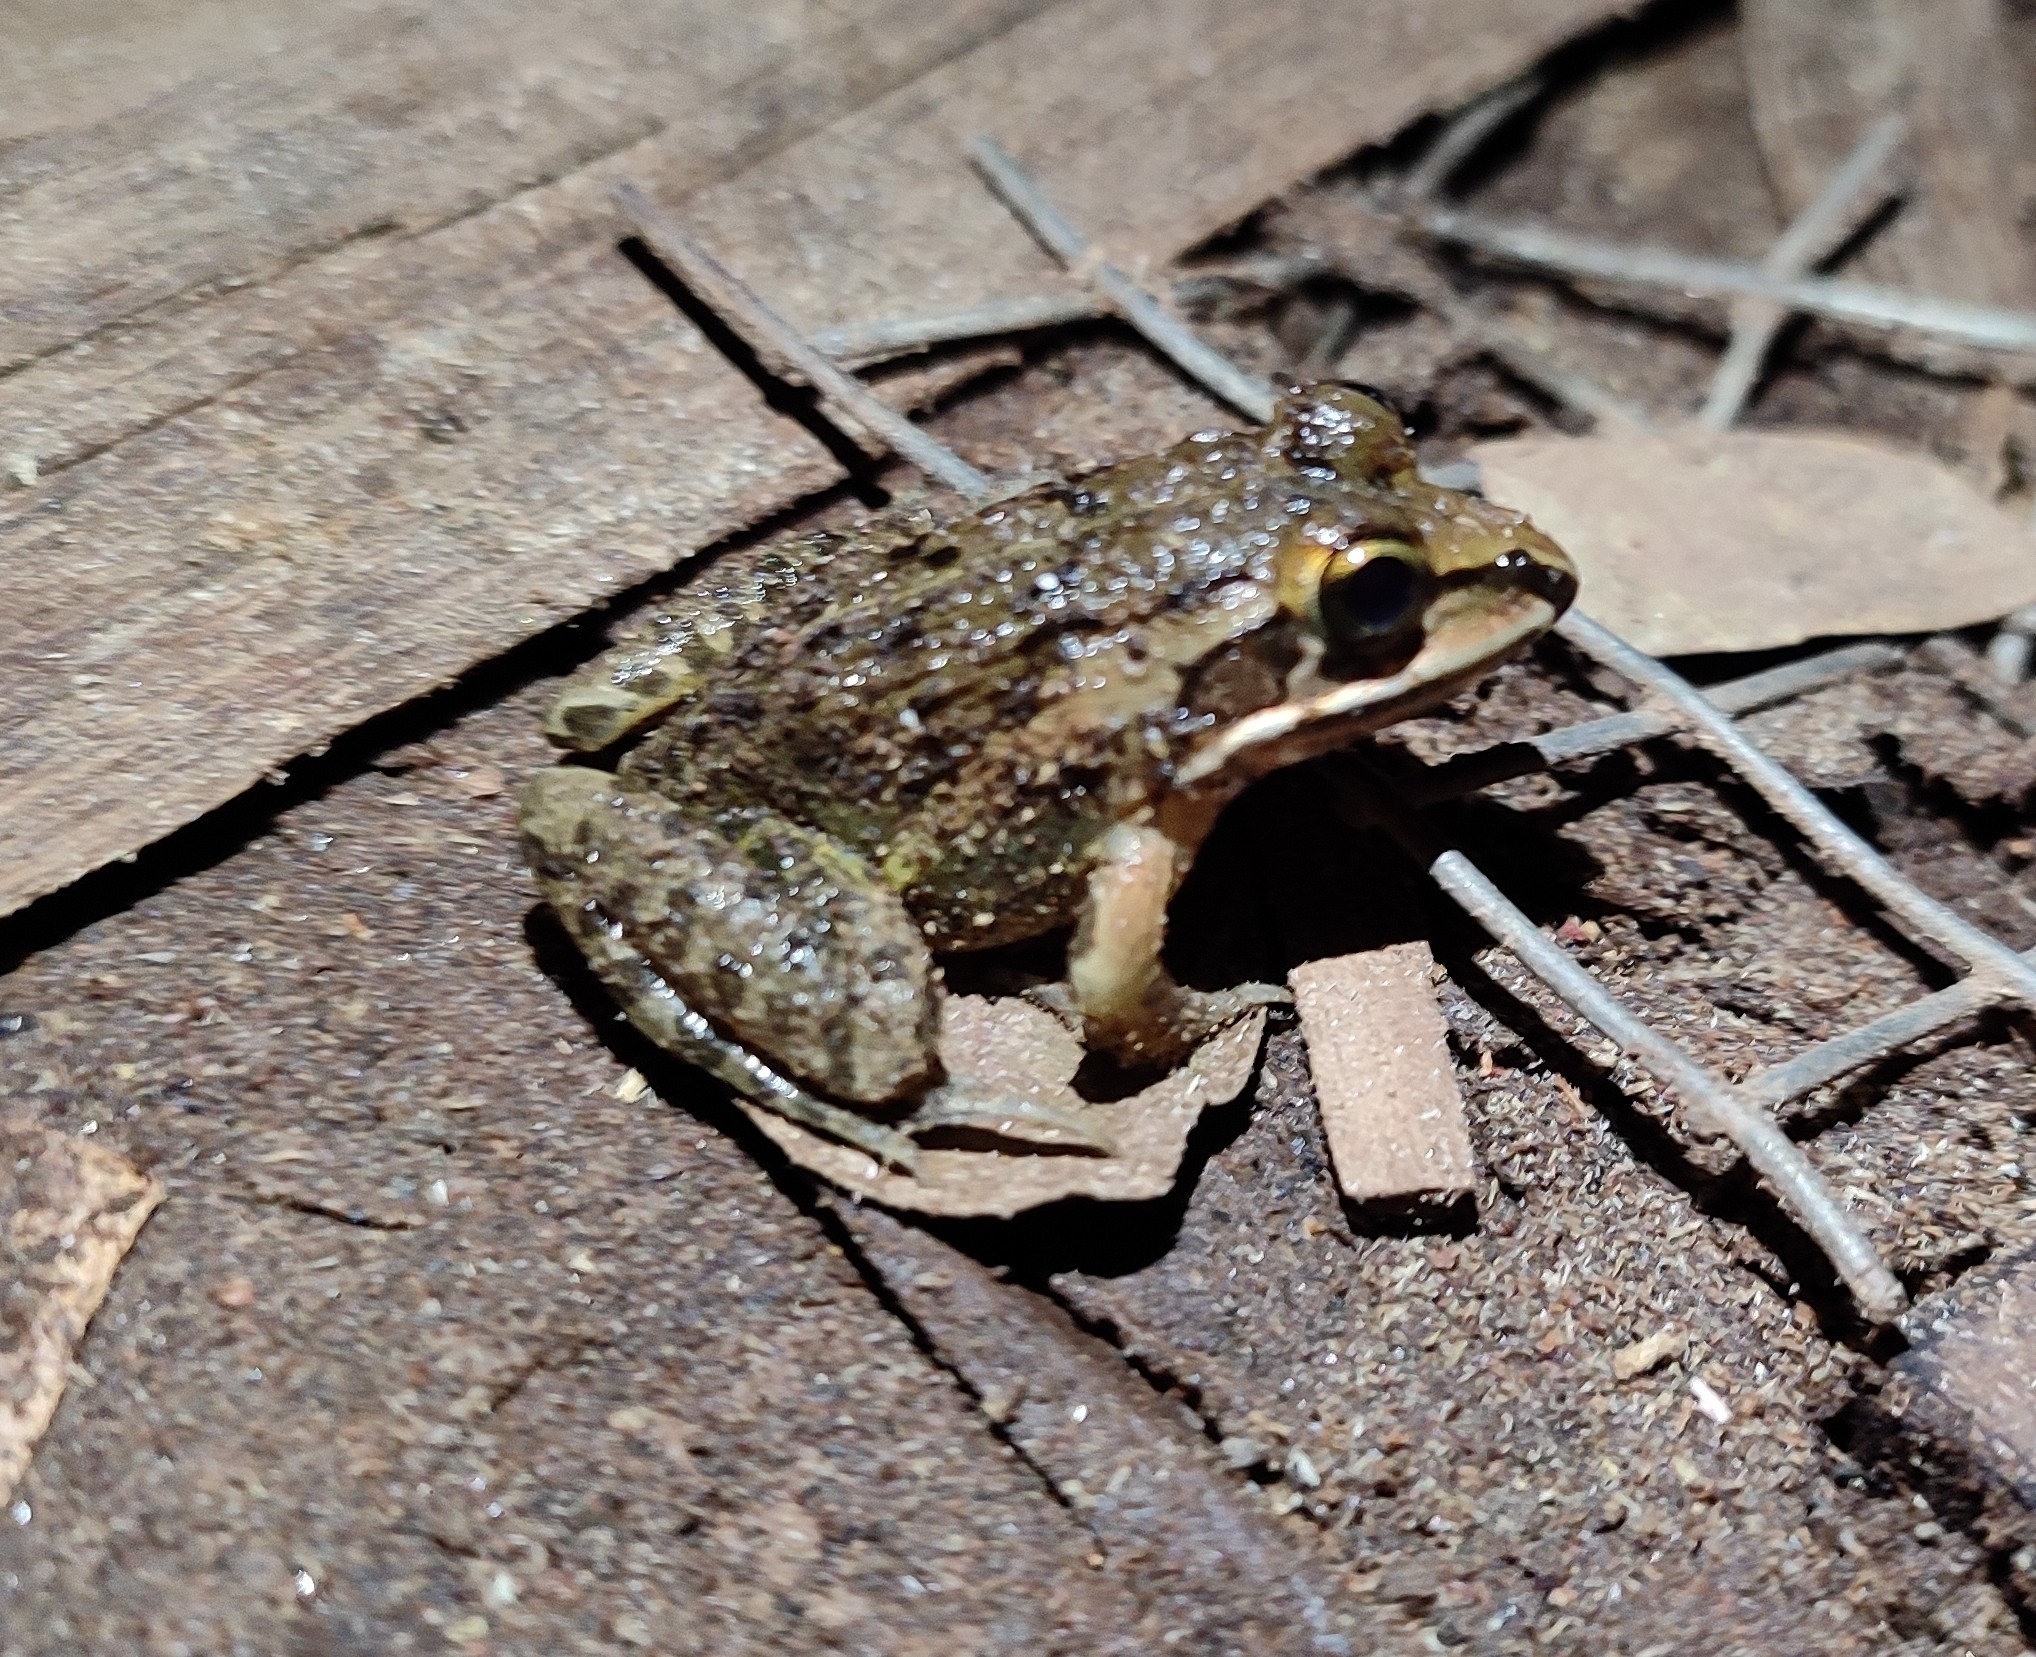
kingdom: Animalia
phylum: Chordata
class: Amphibia
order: Anura
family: Dicroglossidae
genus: Hoplobatrachus
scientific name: Hoplobatrachus tigerinus
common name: Indian bullfrog
